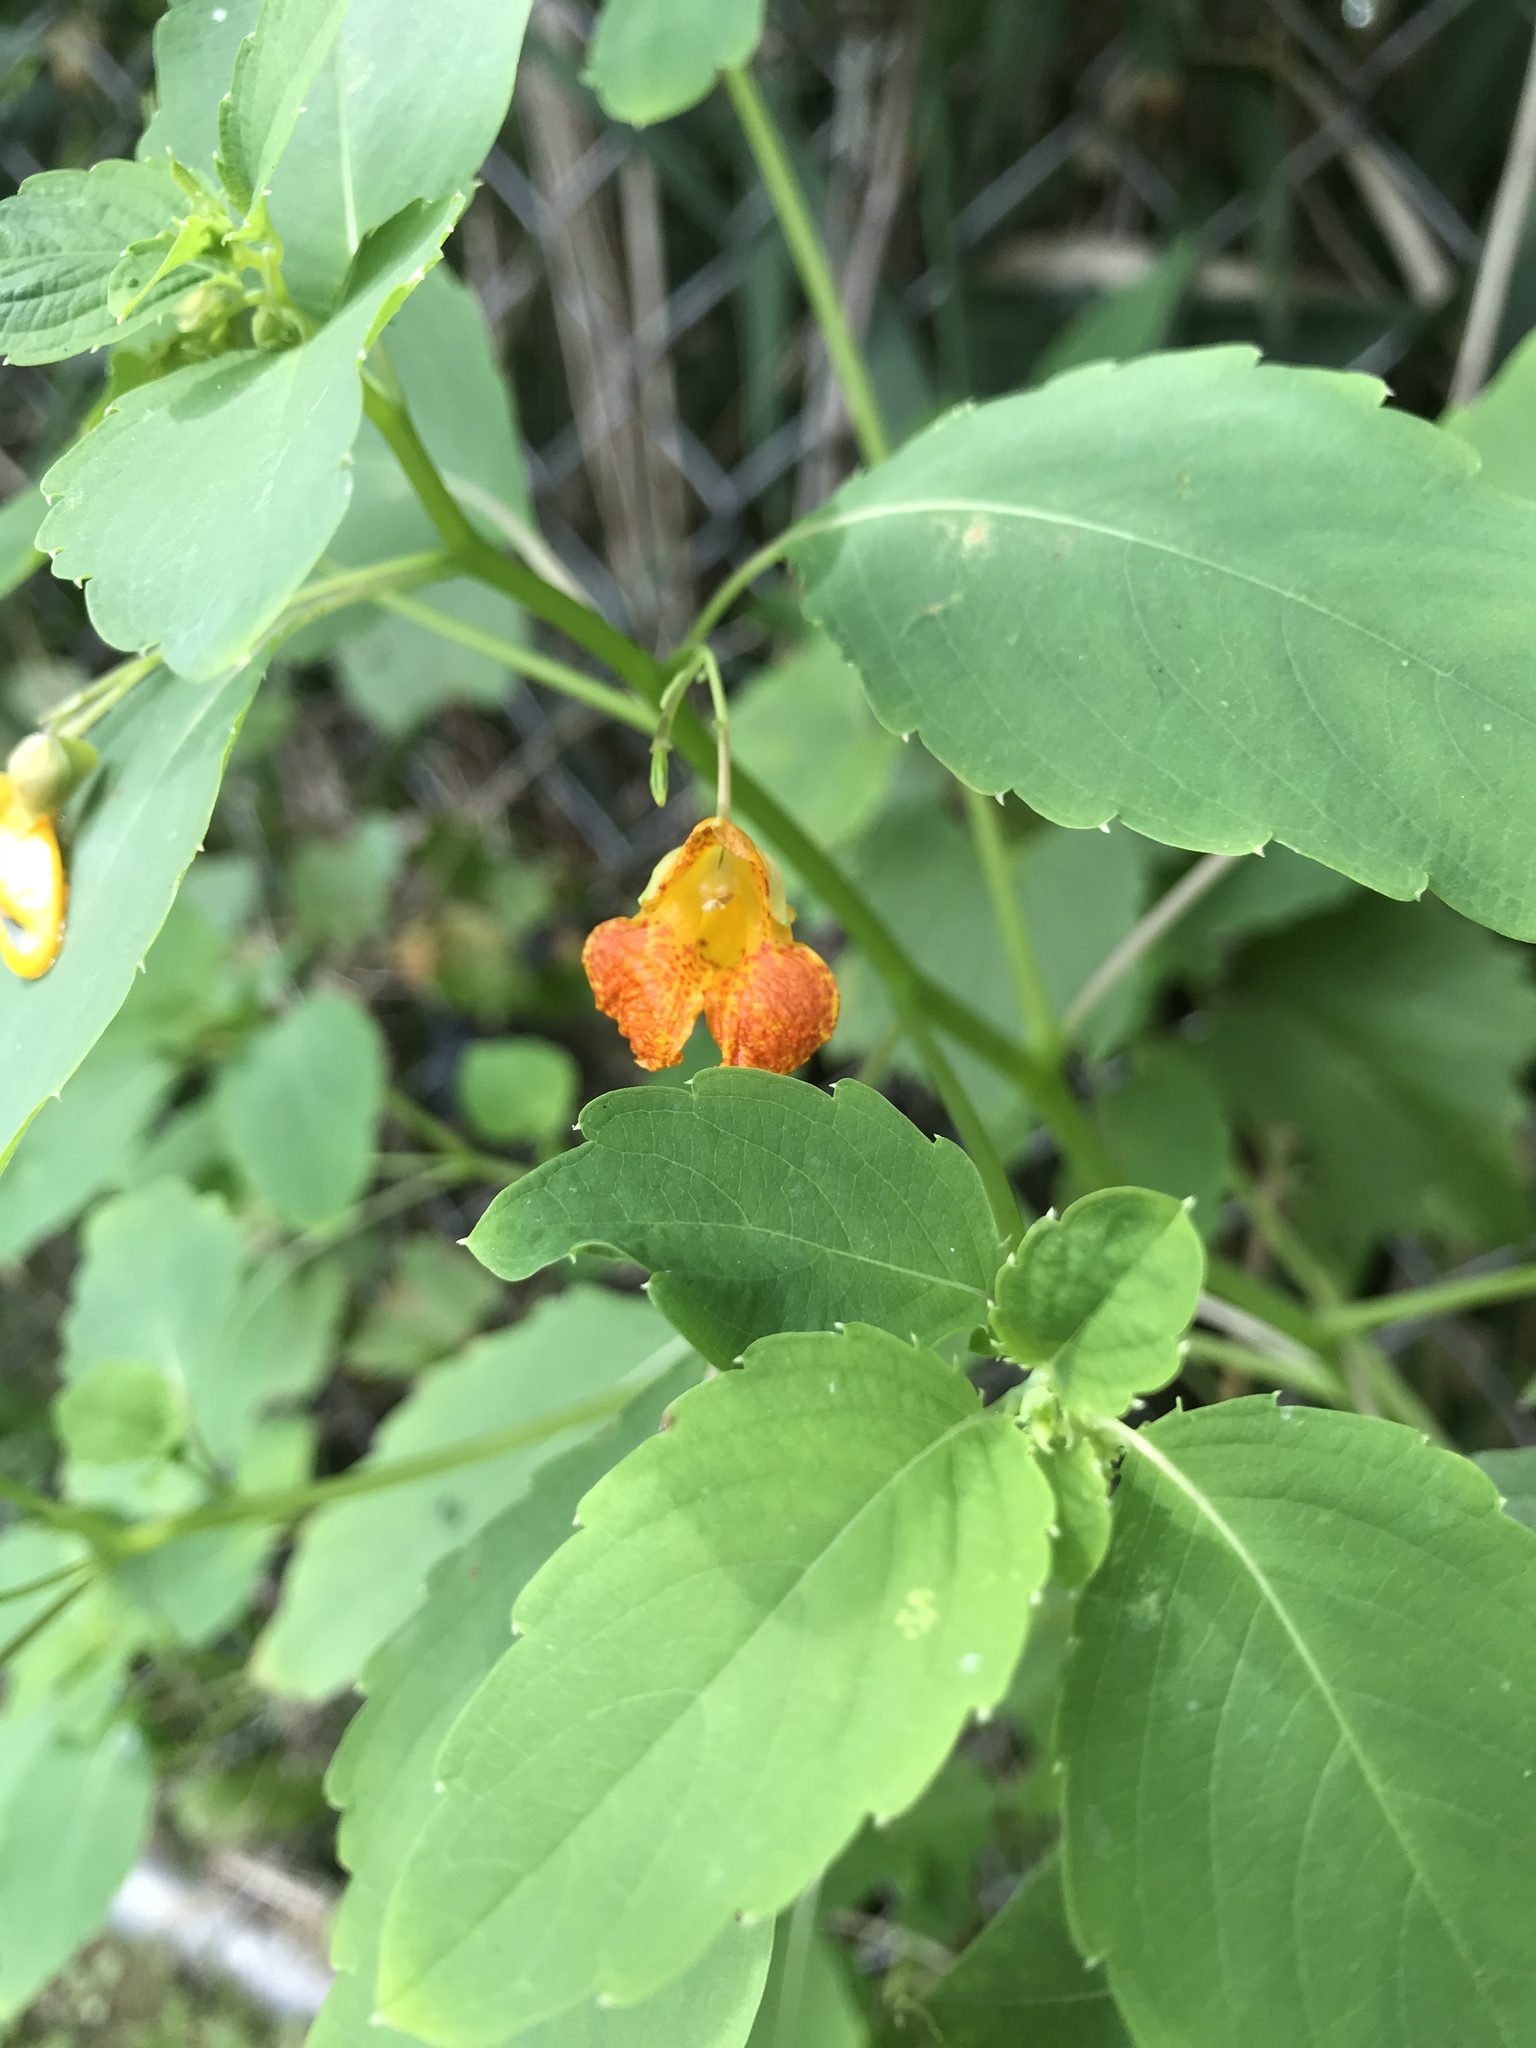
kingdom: Plantae
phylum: Tracheophyta
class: Magnoliopsida
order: Ericales
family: Balsaminaceae
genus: Impatiens
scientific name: Impatiens capensis
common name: Orange balsam
